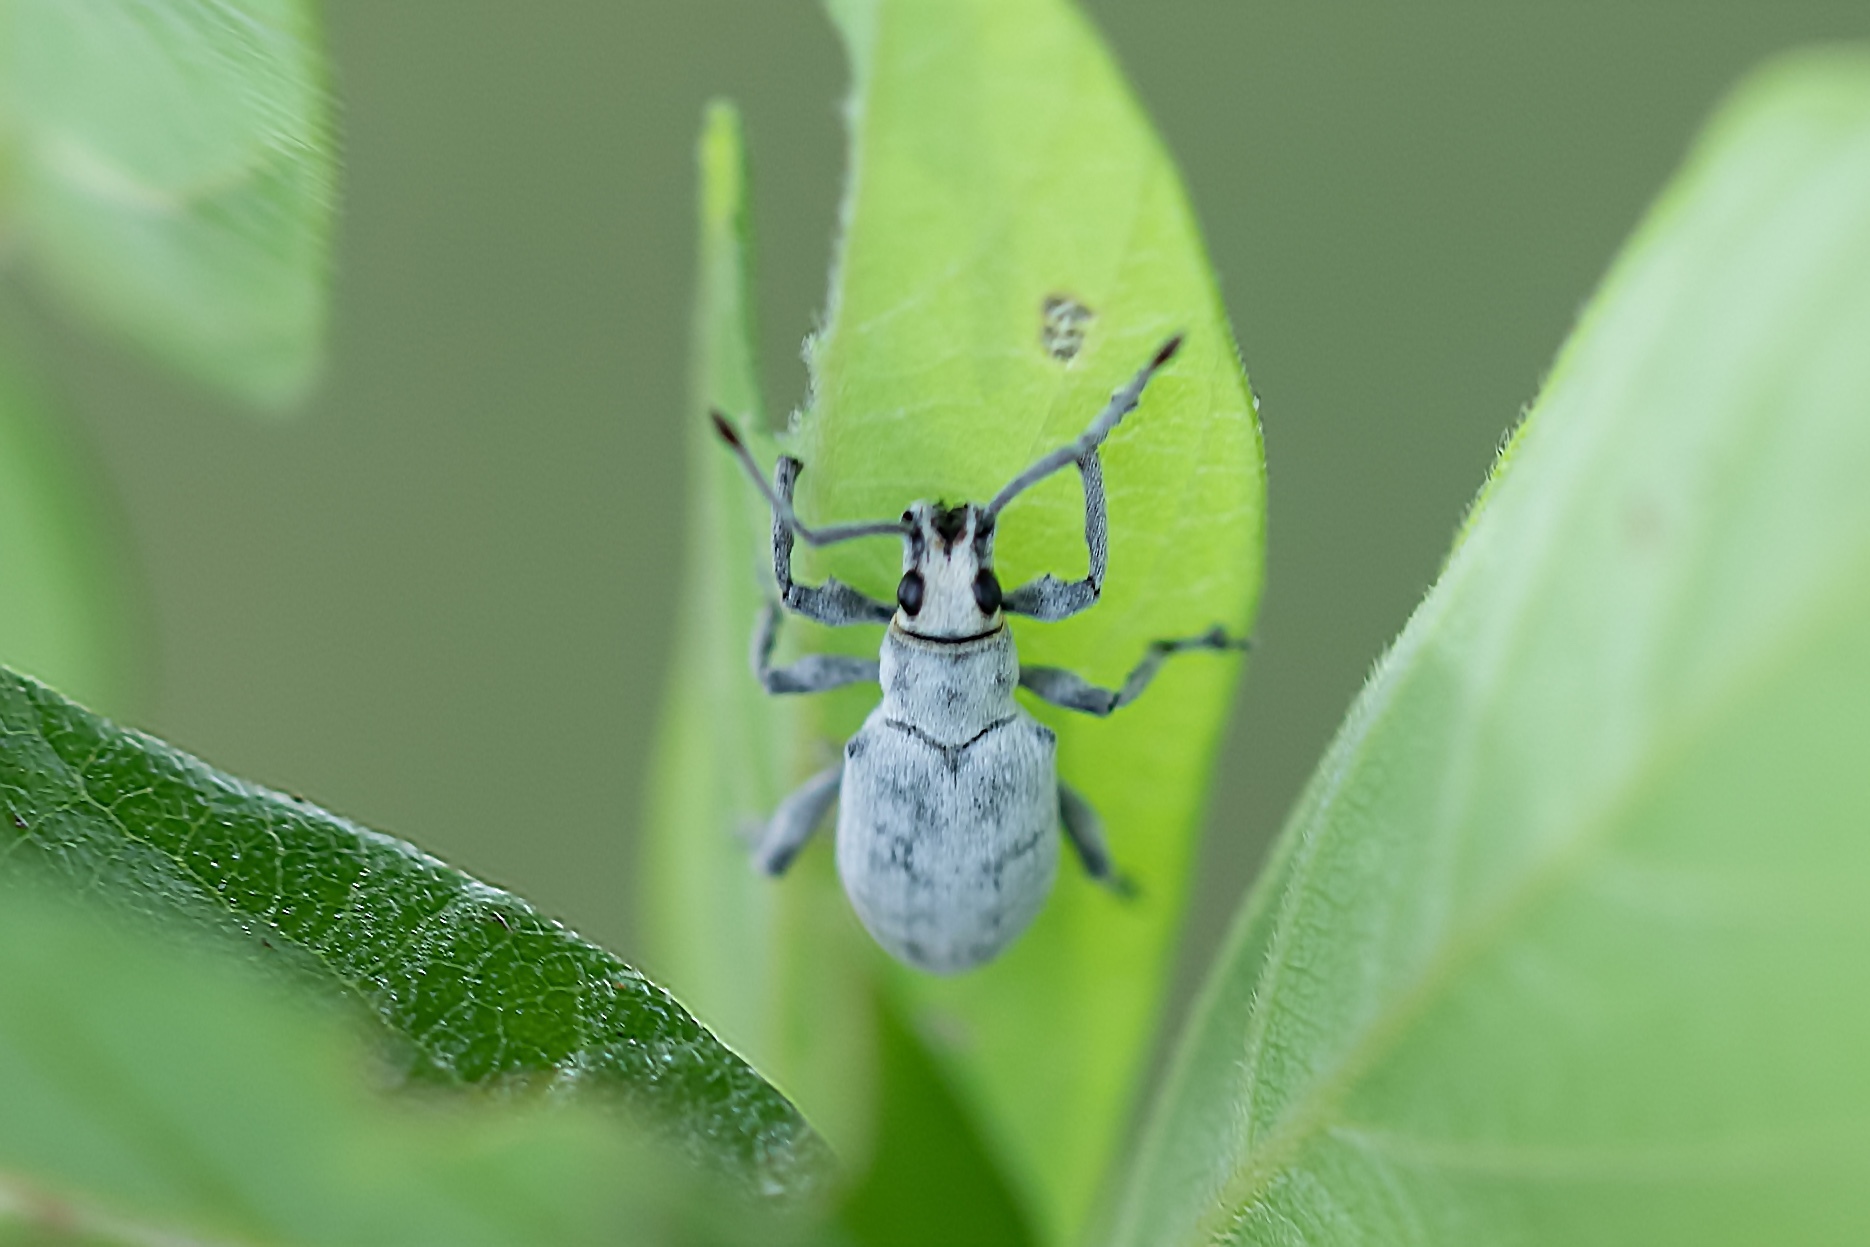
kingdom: Animalia
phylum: Arthropoda
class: Insecta
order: Coleoptera
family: Curculionidae
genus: Myllocerus
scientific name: Myllocerus undecimpustulatus
